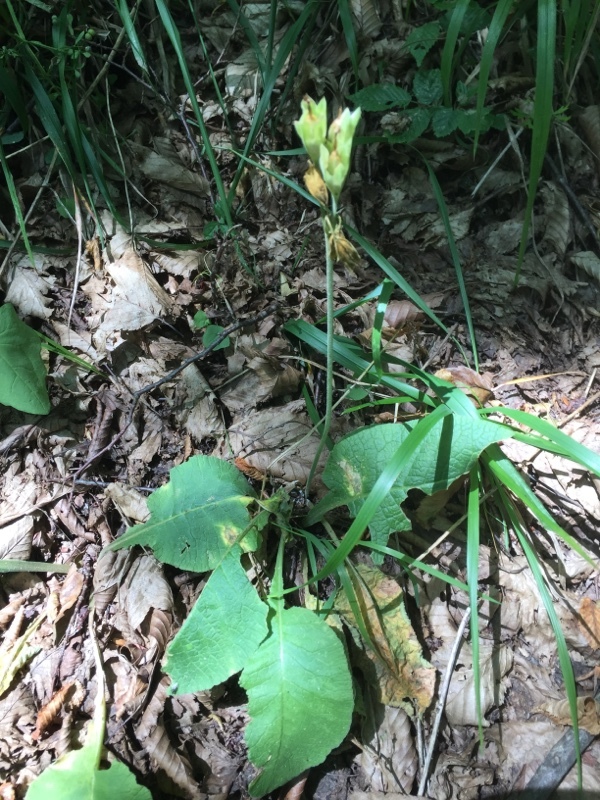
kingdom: Plantae
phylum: Tracheophyta
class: Magnoliopsida
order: Ericales
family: Primulaceae
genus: Primula
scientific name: Primula veris
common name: Cowslip
